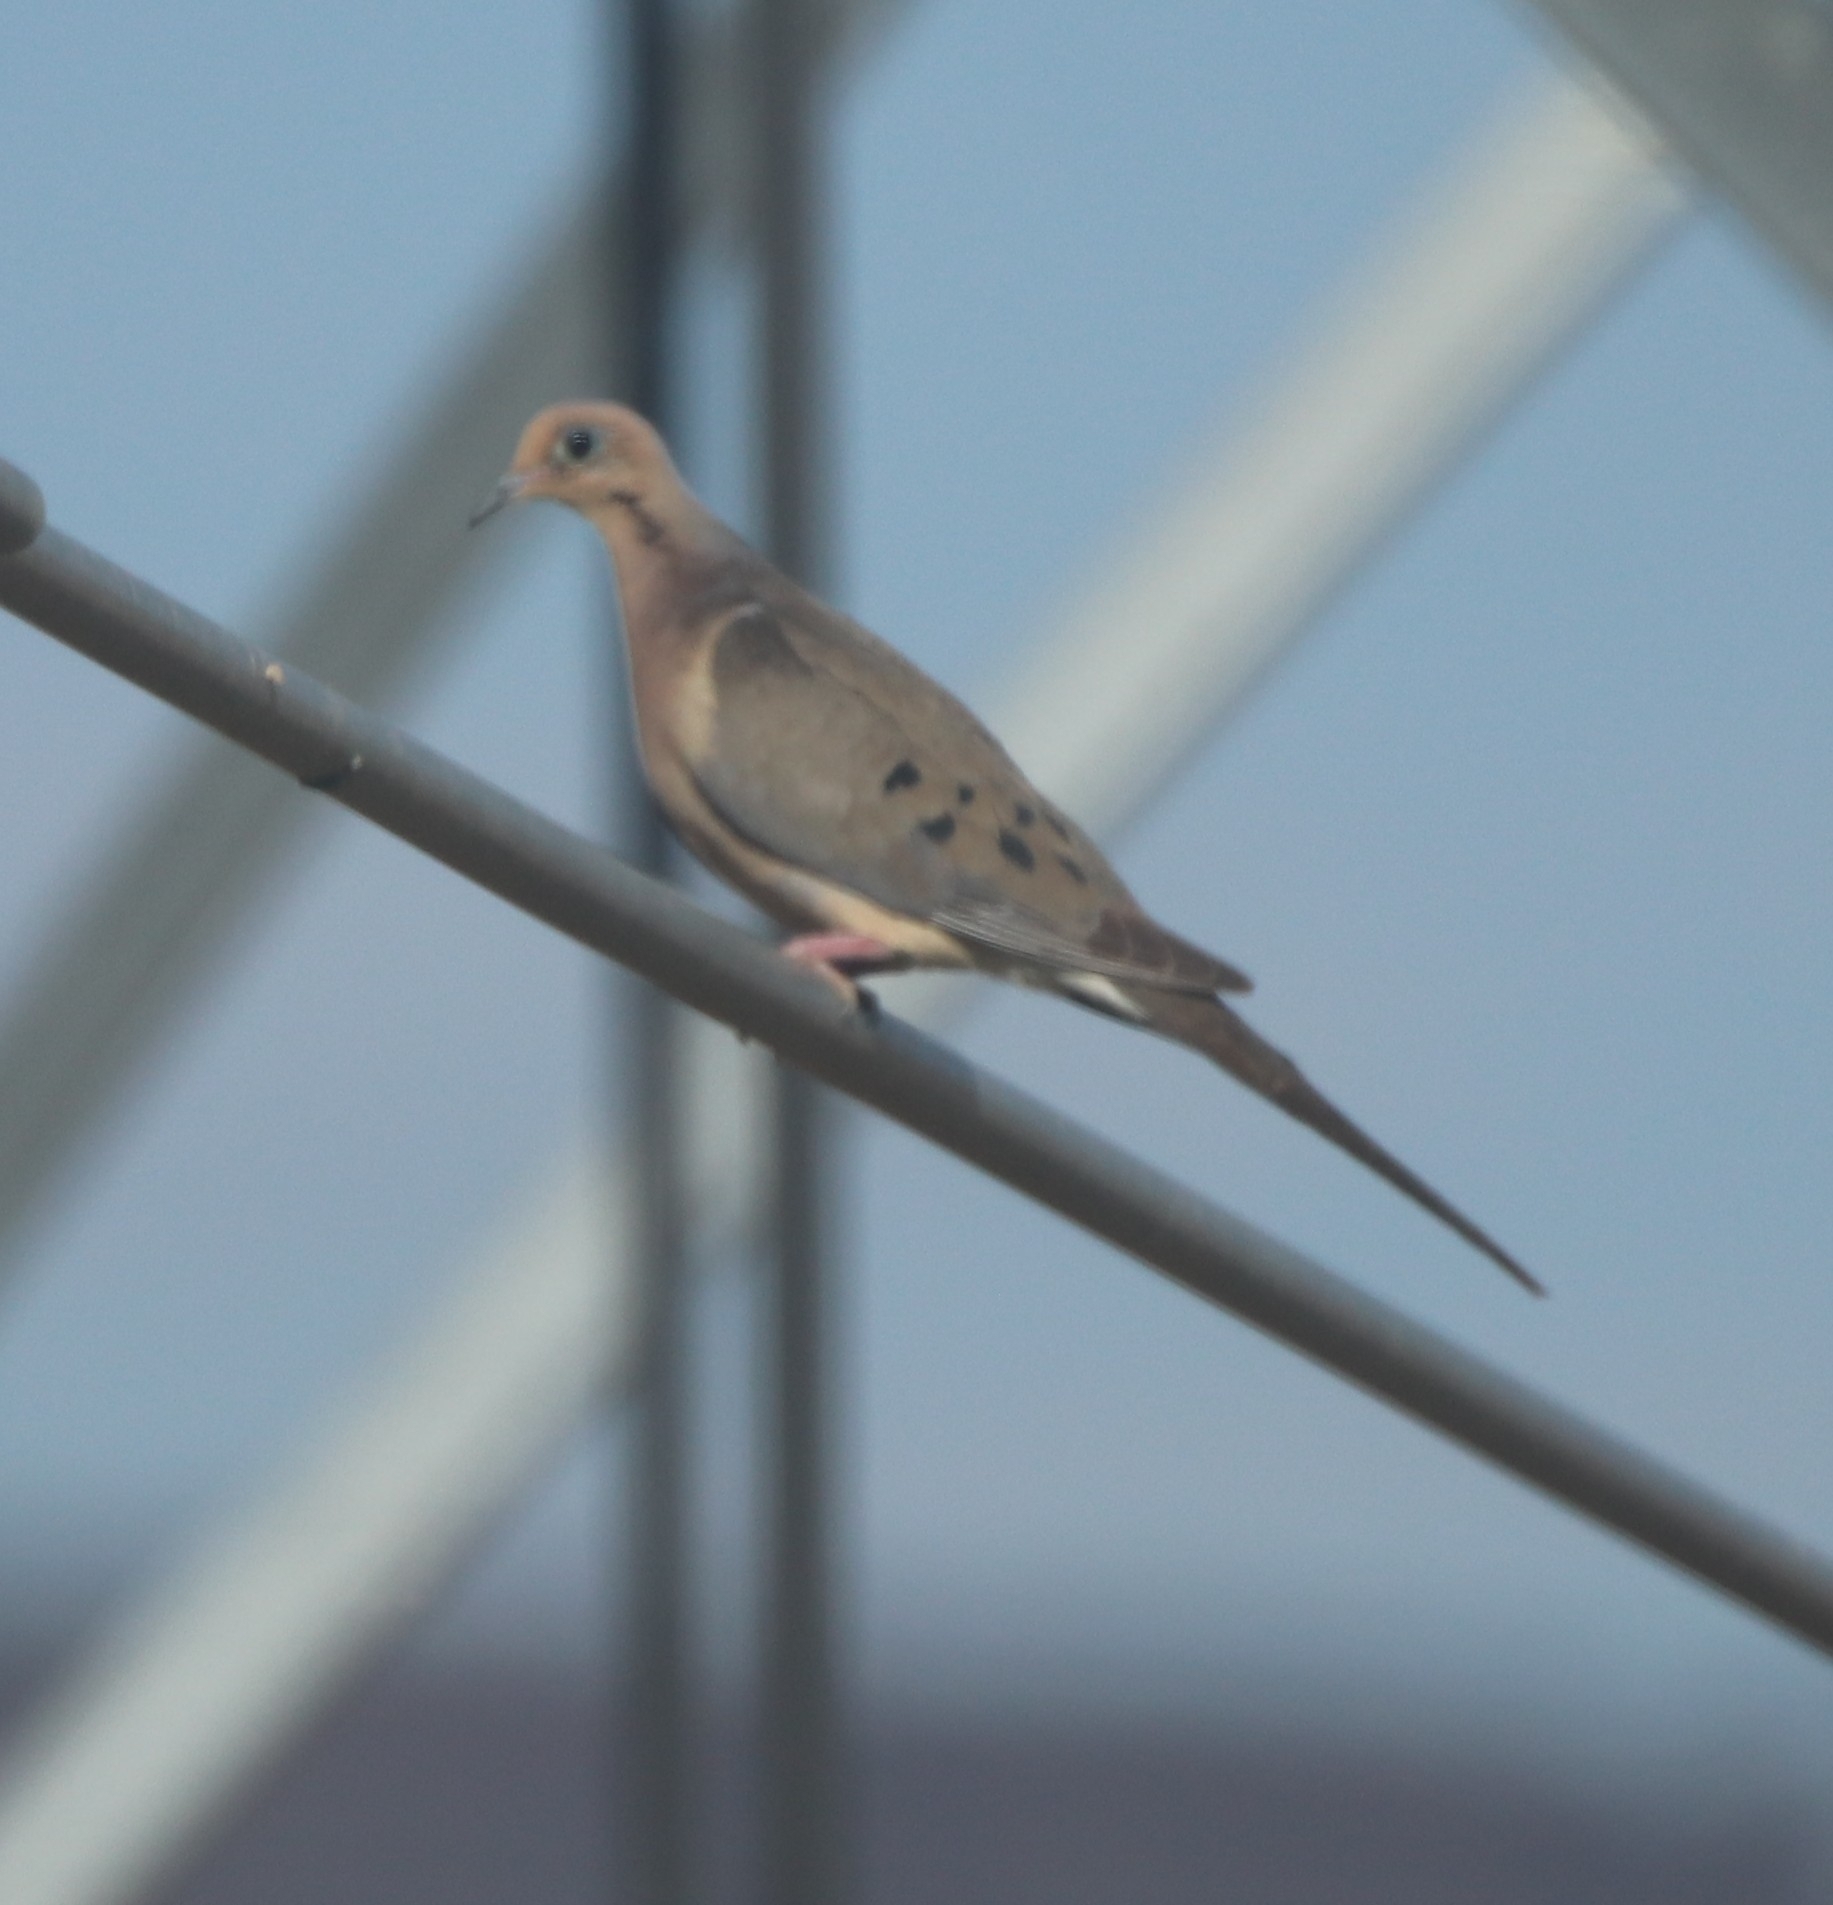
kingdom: Animalia
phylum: Chordata
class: Aves
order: Columbiformes
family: Columbidae
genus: Zenaida
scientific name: Zenaida macroura
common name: Mourning dove
